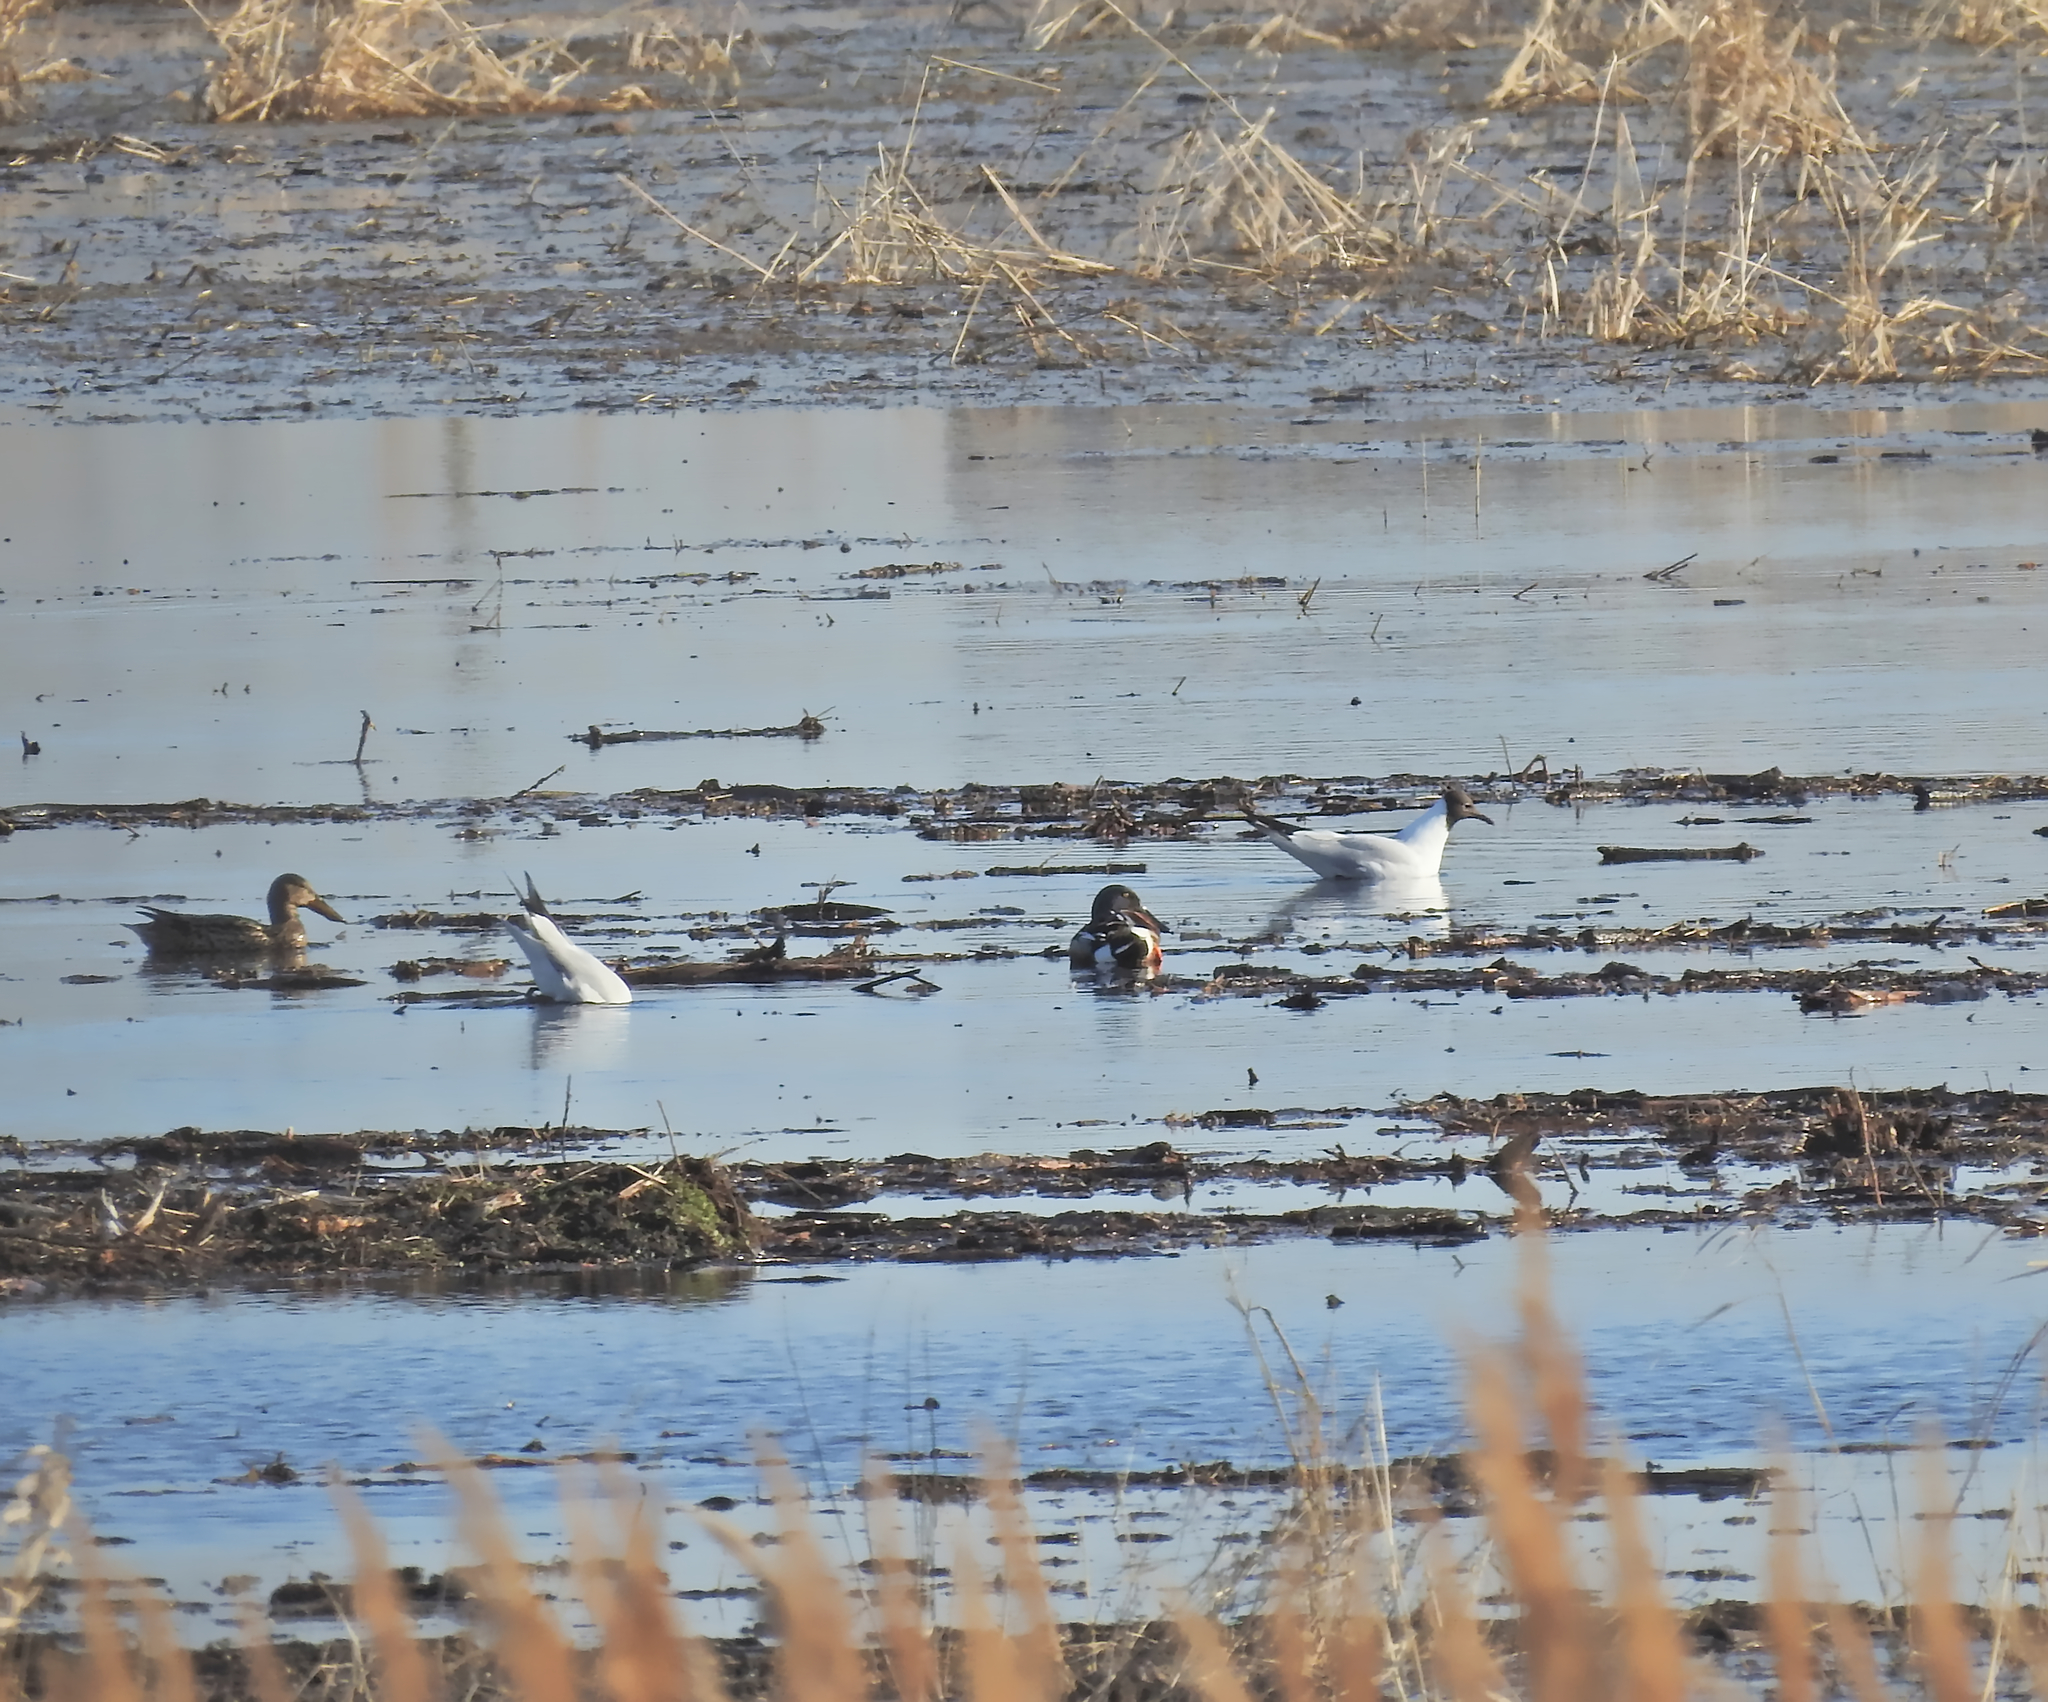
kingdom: Animalia
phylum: Chordata
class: Aves
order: Anseriformes
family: Anatidae
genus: Spatula
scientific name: Spatula clypeata
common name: Northern shoveler
